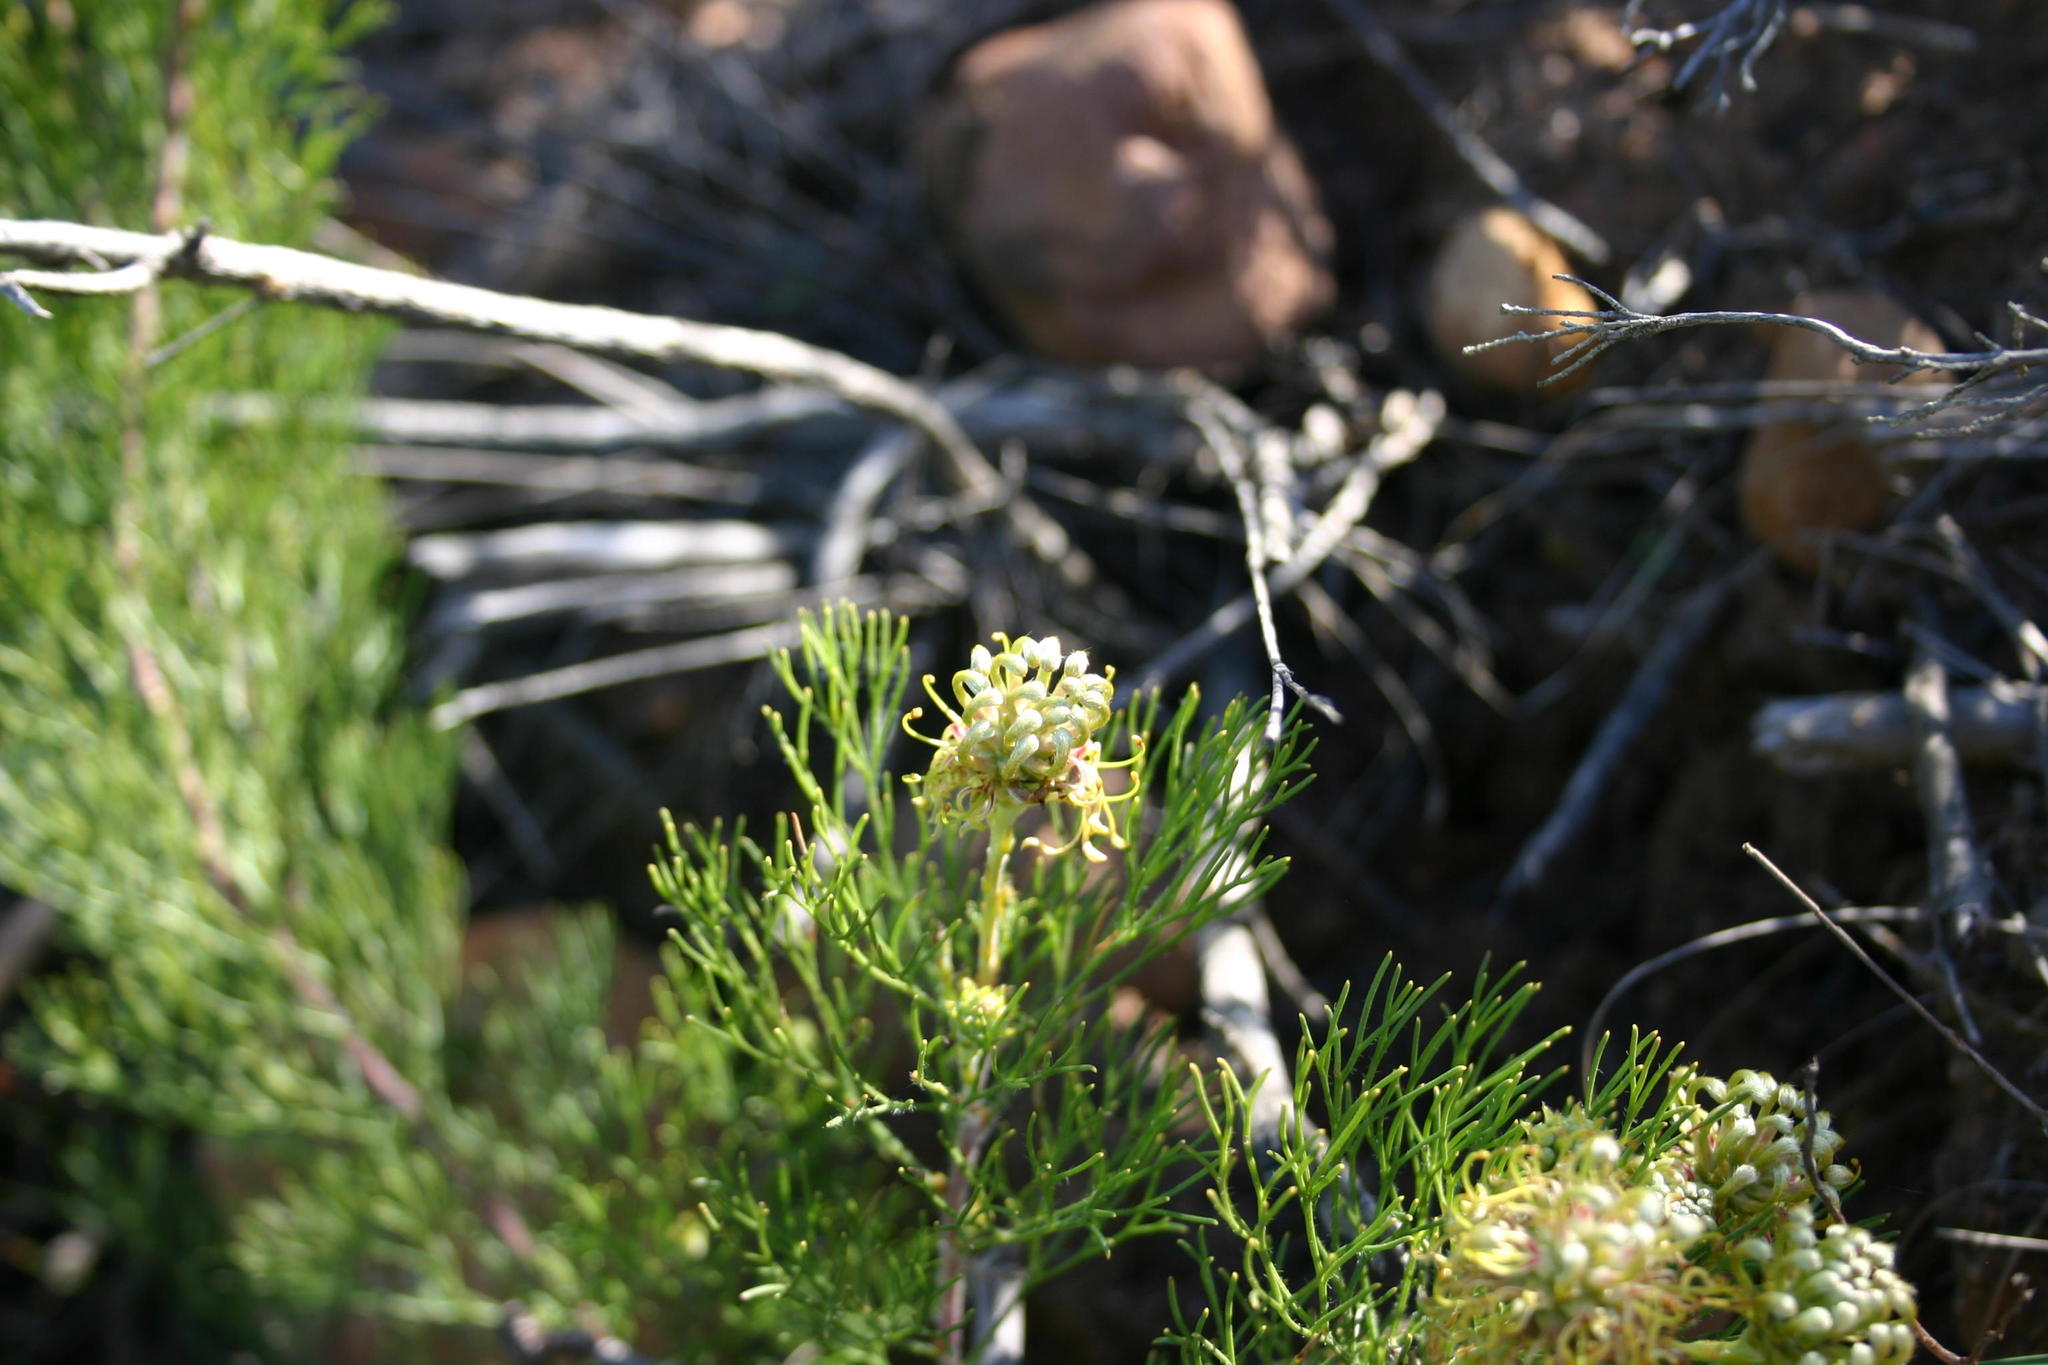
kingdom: Plantae
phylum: Tracheophyta
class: Magnoliopsida
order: Proteales
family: Proteaceae
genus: Serruria
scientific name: Serruria
